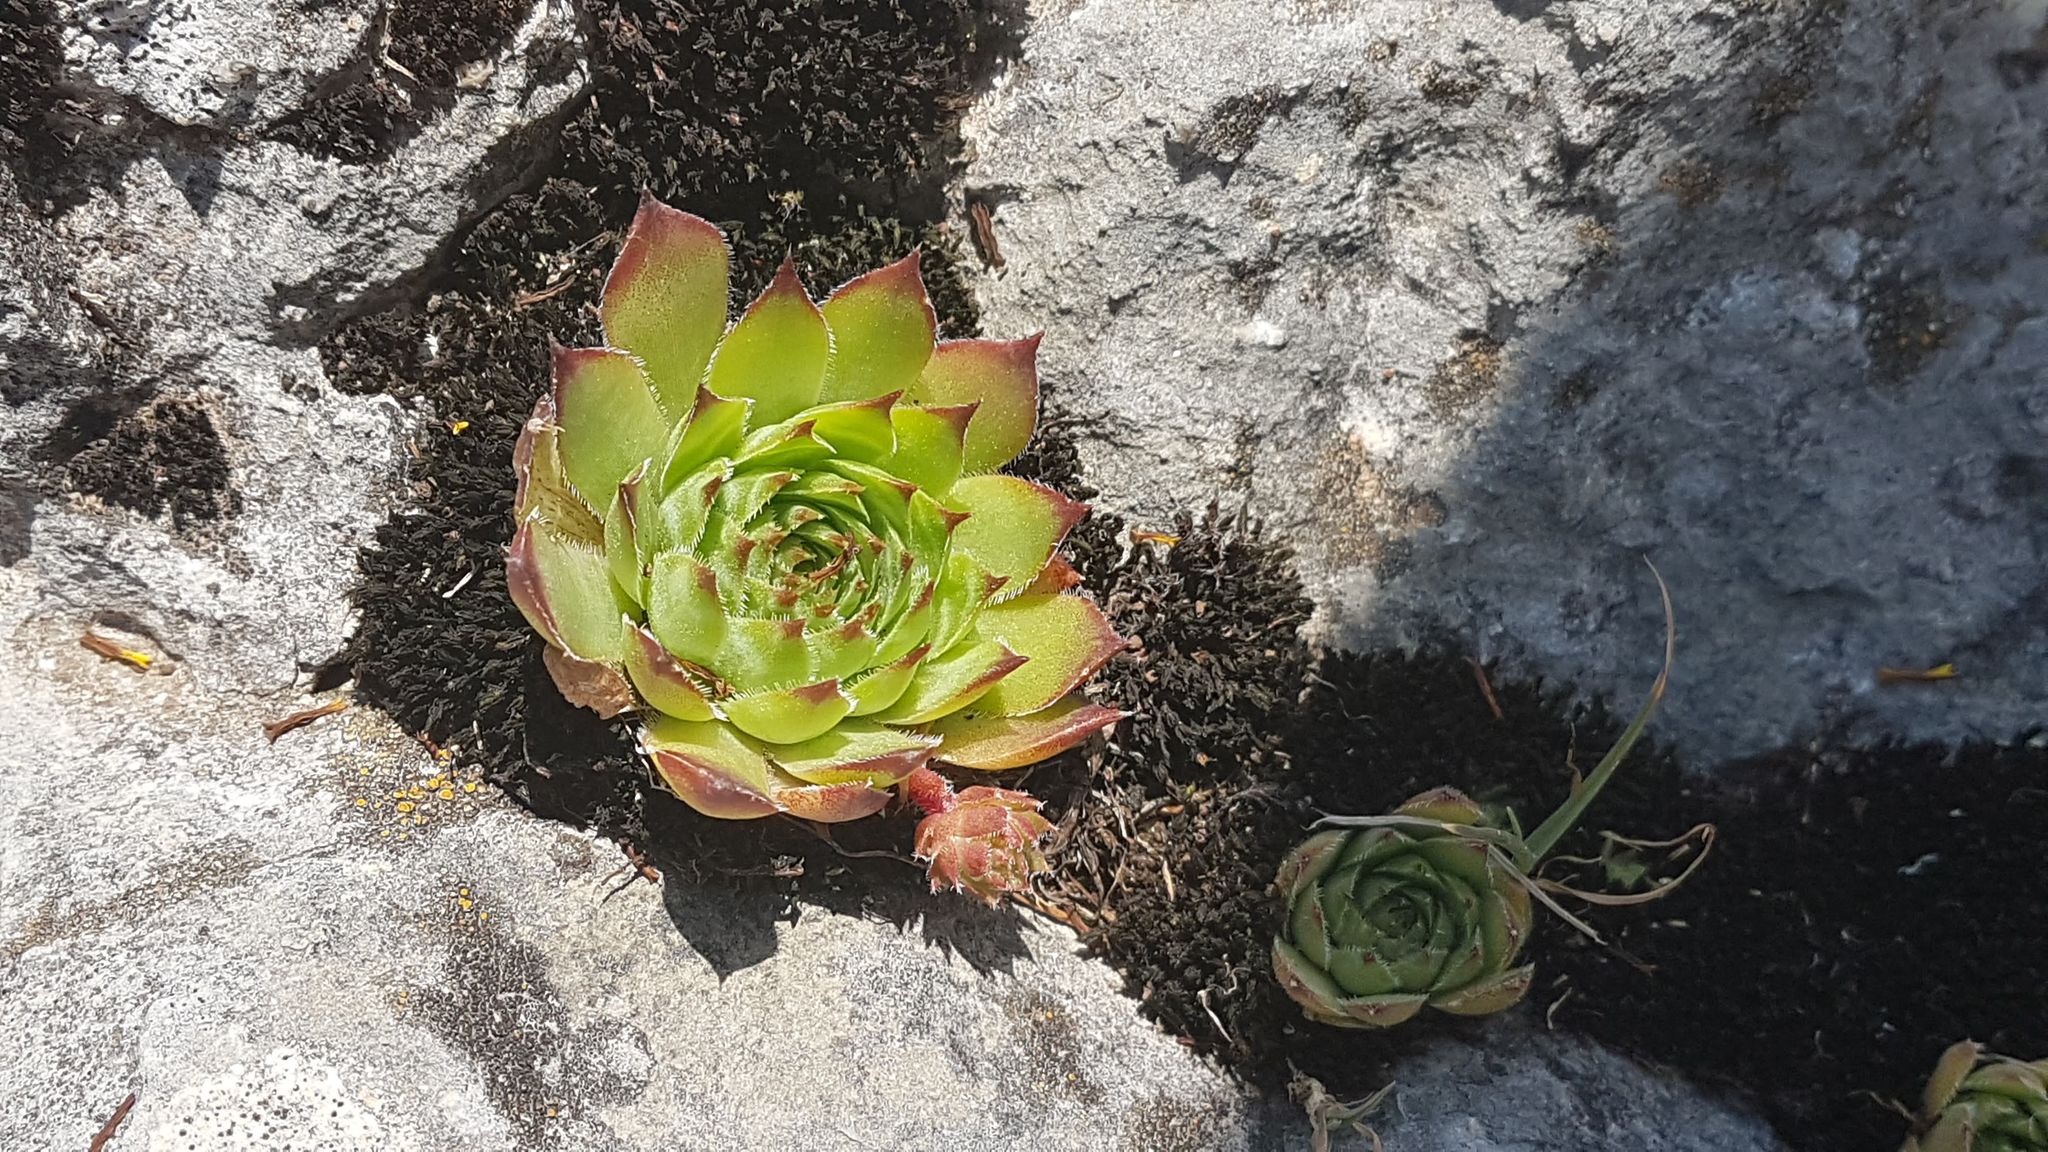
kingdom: Plantae
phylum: Tracheophyta
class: Magnoliopsida
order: Saxifragales
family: Crassulaceae
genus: Sempervivum
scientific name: Sempervivum tectorum
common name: House-leek
